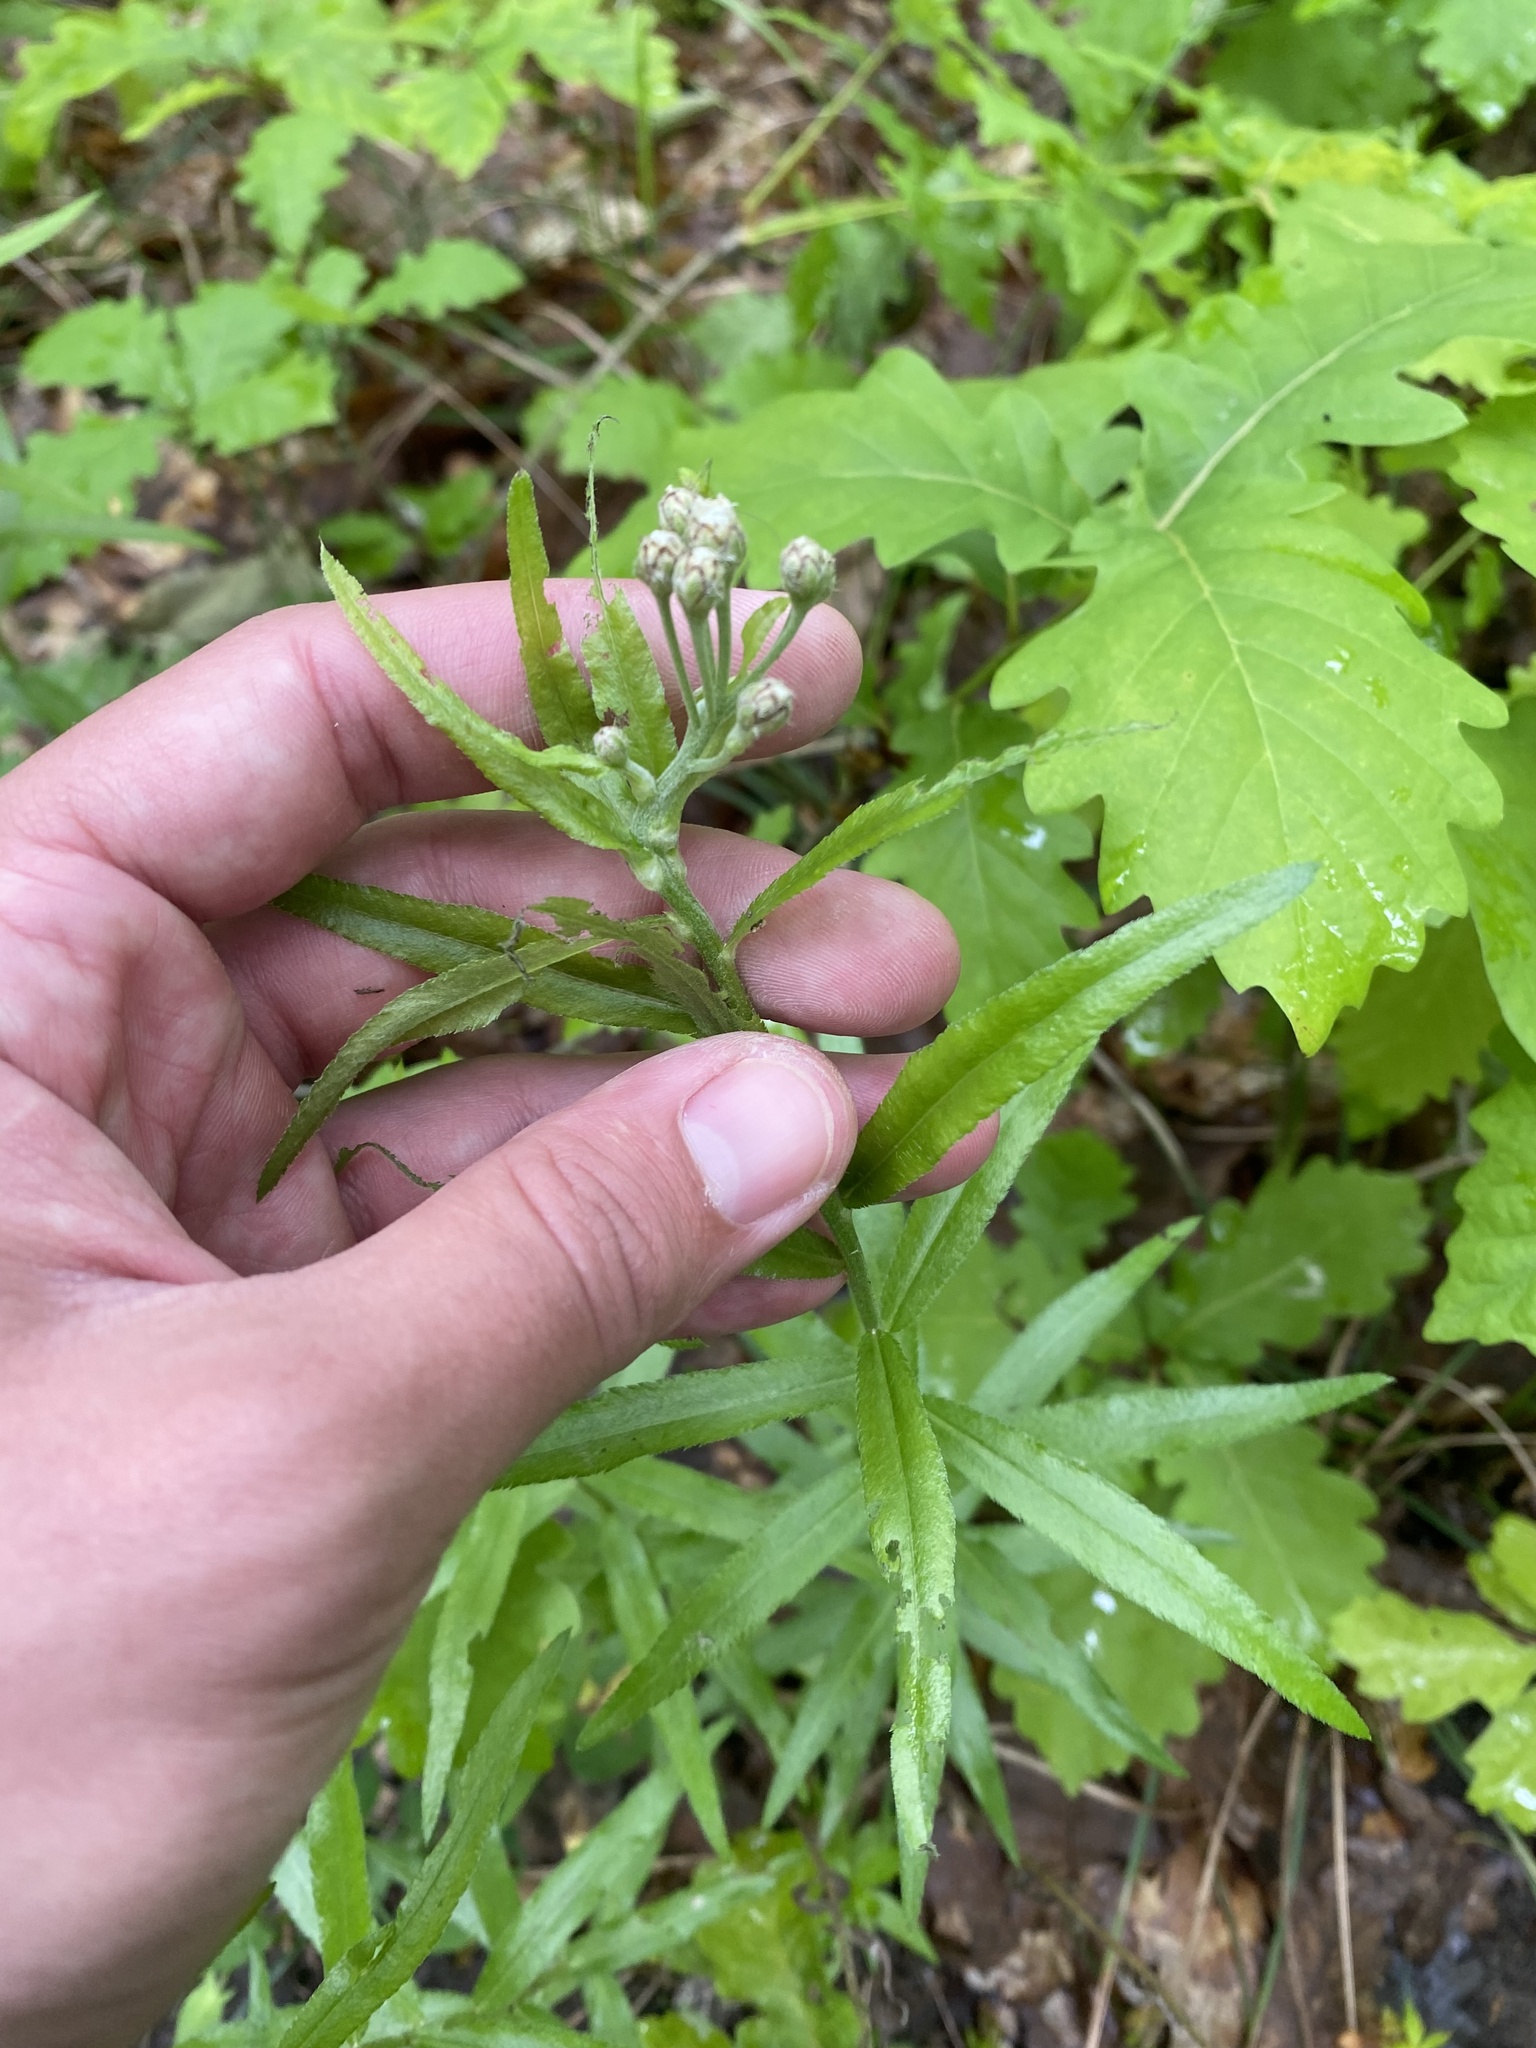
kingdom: Plantae
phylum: Tracheophyta
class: Magnoliopsida
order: Asterales
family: Asteraceae
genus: Achillea
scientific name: Achillea biserrata
